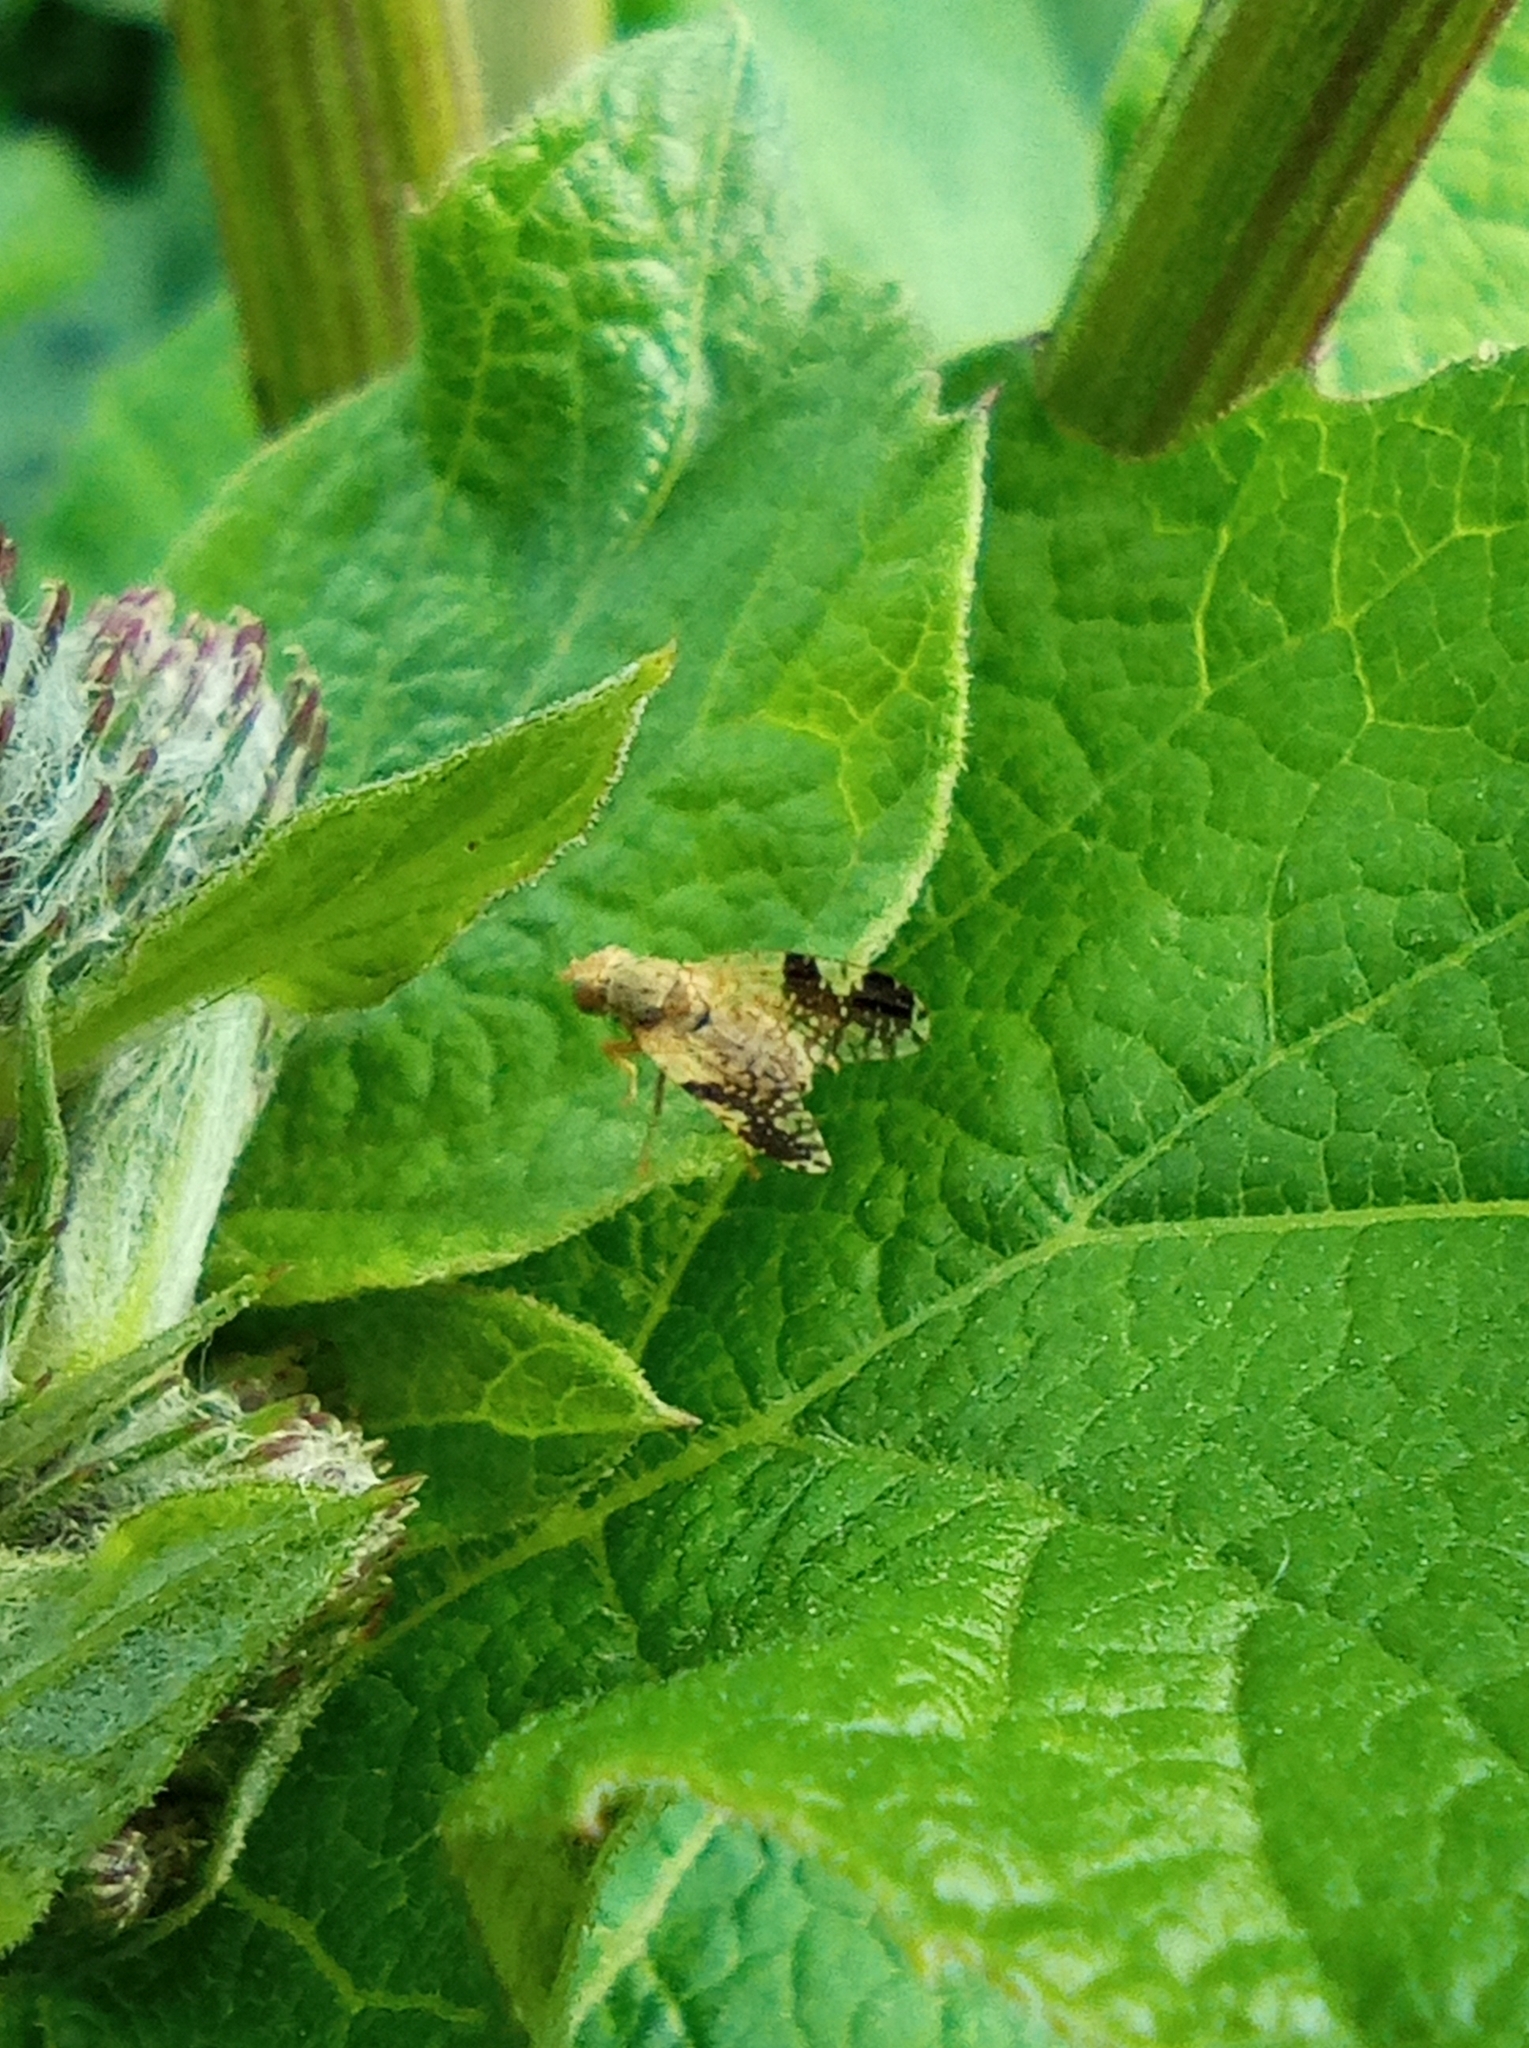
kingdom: Animalia
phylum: Arthropoda
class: Insecta
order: Diptera
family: Tephritidae
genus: Tephritis
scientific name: Tephritis bardanae
